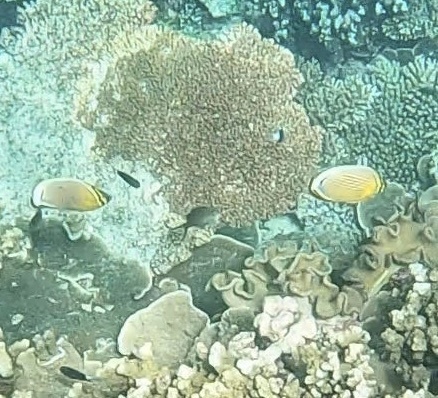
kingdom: Animalia
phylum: Chordata
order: Perciformes
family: Chaetodontidae
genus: Chaetodon
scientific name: Chaetodon lunulatus
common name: Redfin butterflyfish
